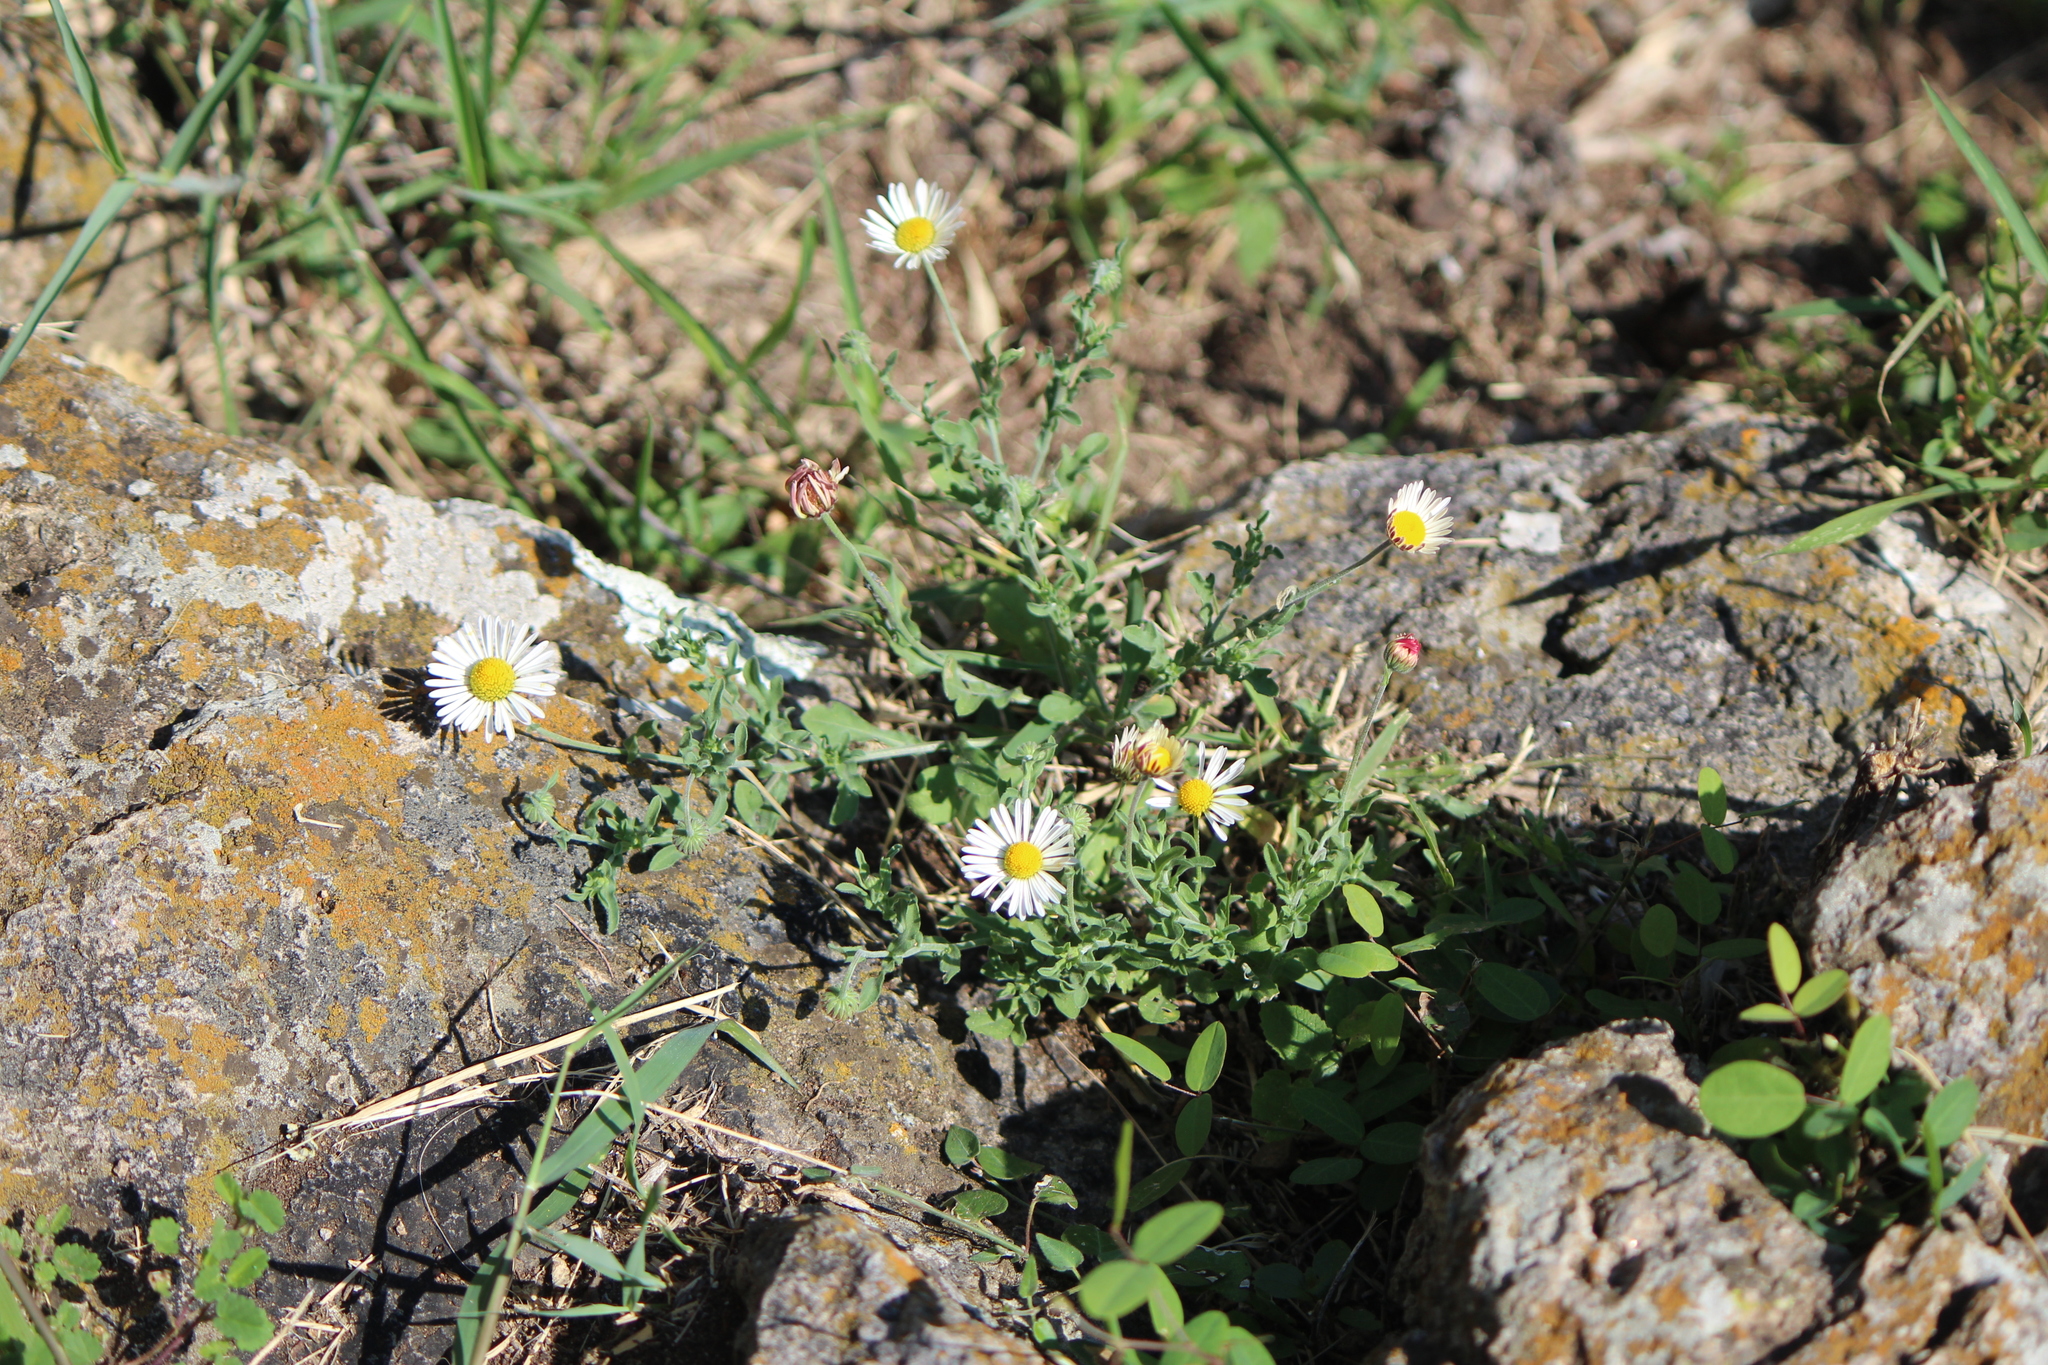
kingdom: Plantae
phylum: Tracheophyta
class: Magnoliopsida
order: Asterales
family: Asteraceae
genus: Aphanostephus
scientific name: Aphanostephus ramosissimus
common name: Plains lazy daisy
